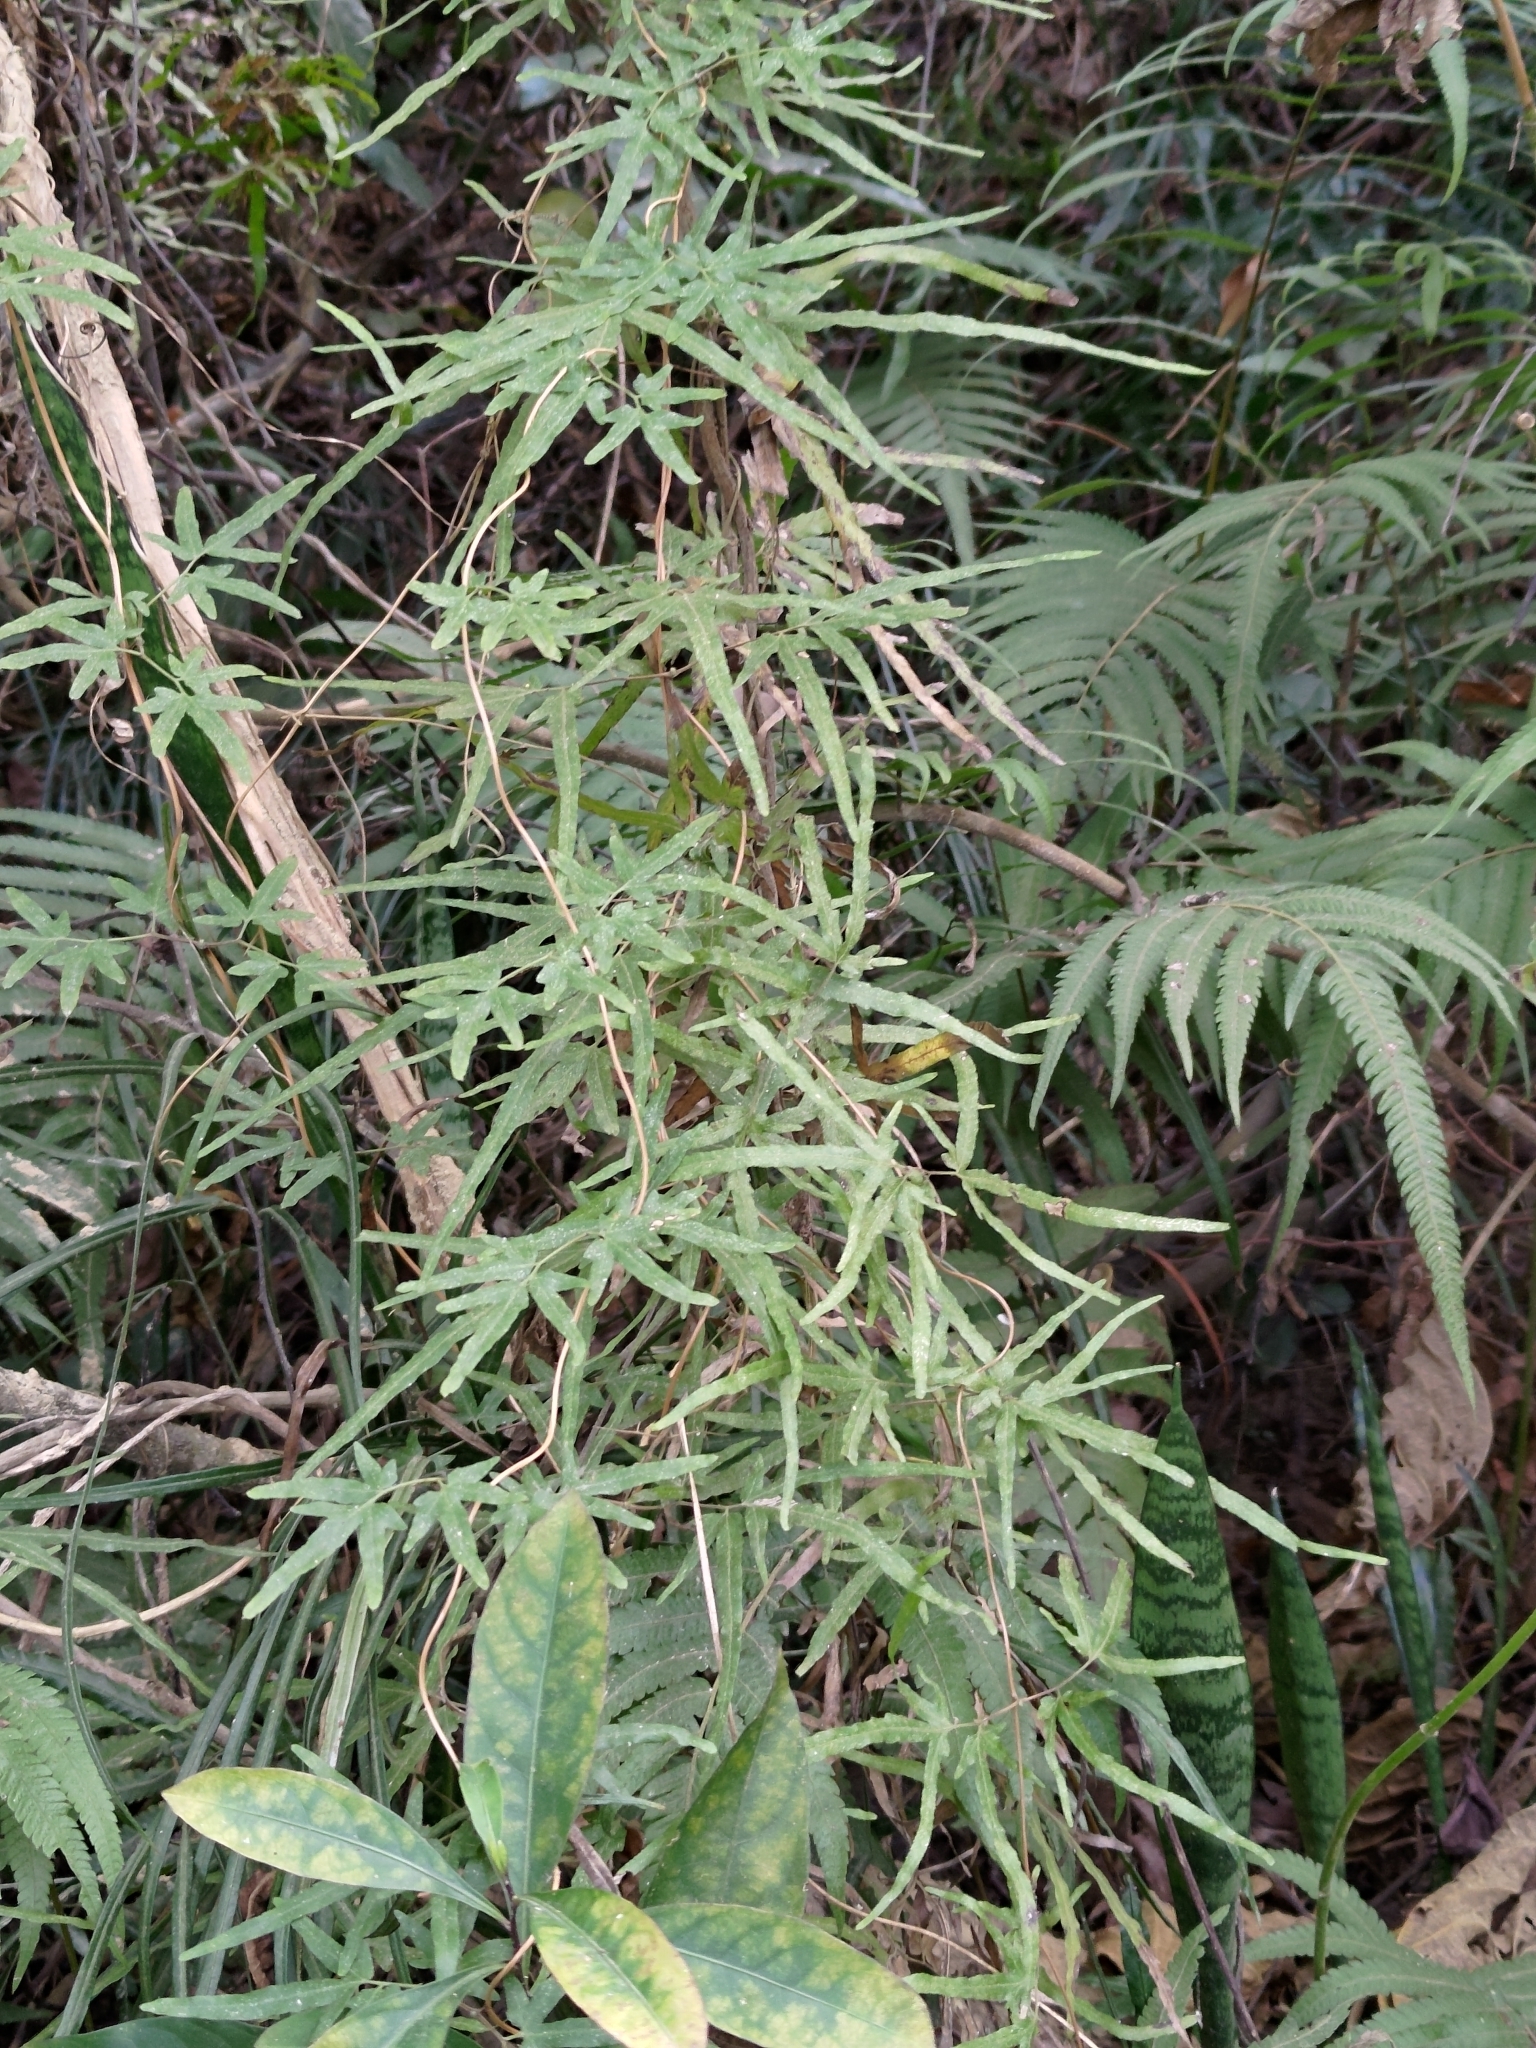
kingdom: Plantae
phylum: Tracheophyta
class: Polypodiopsida
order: Schizaeales
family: Lygodiaceae
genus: Lygodium
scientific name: Lygodium japonicum
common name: Japanese climbing fern
